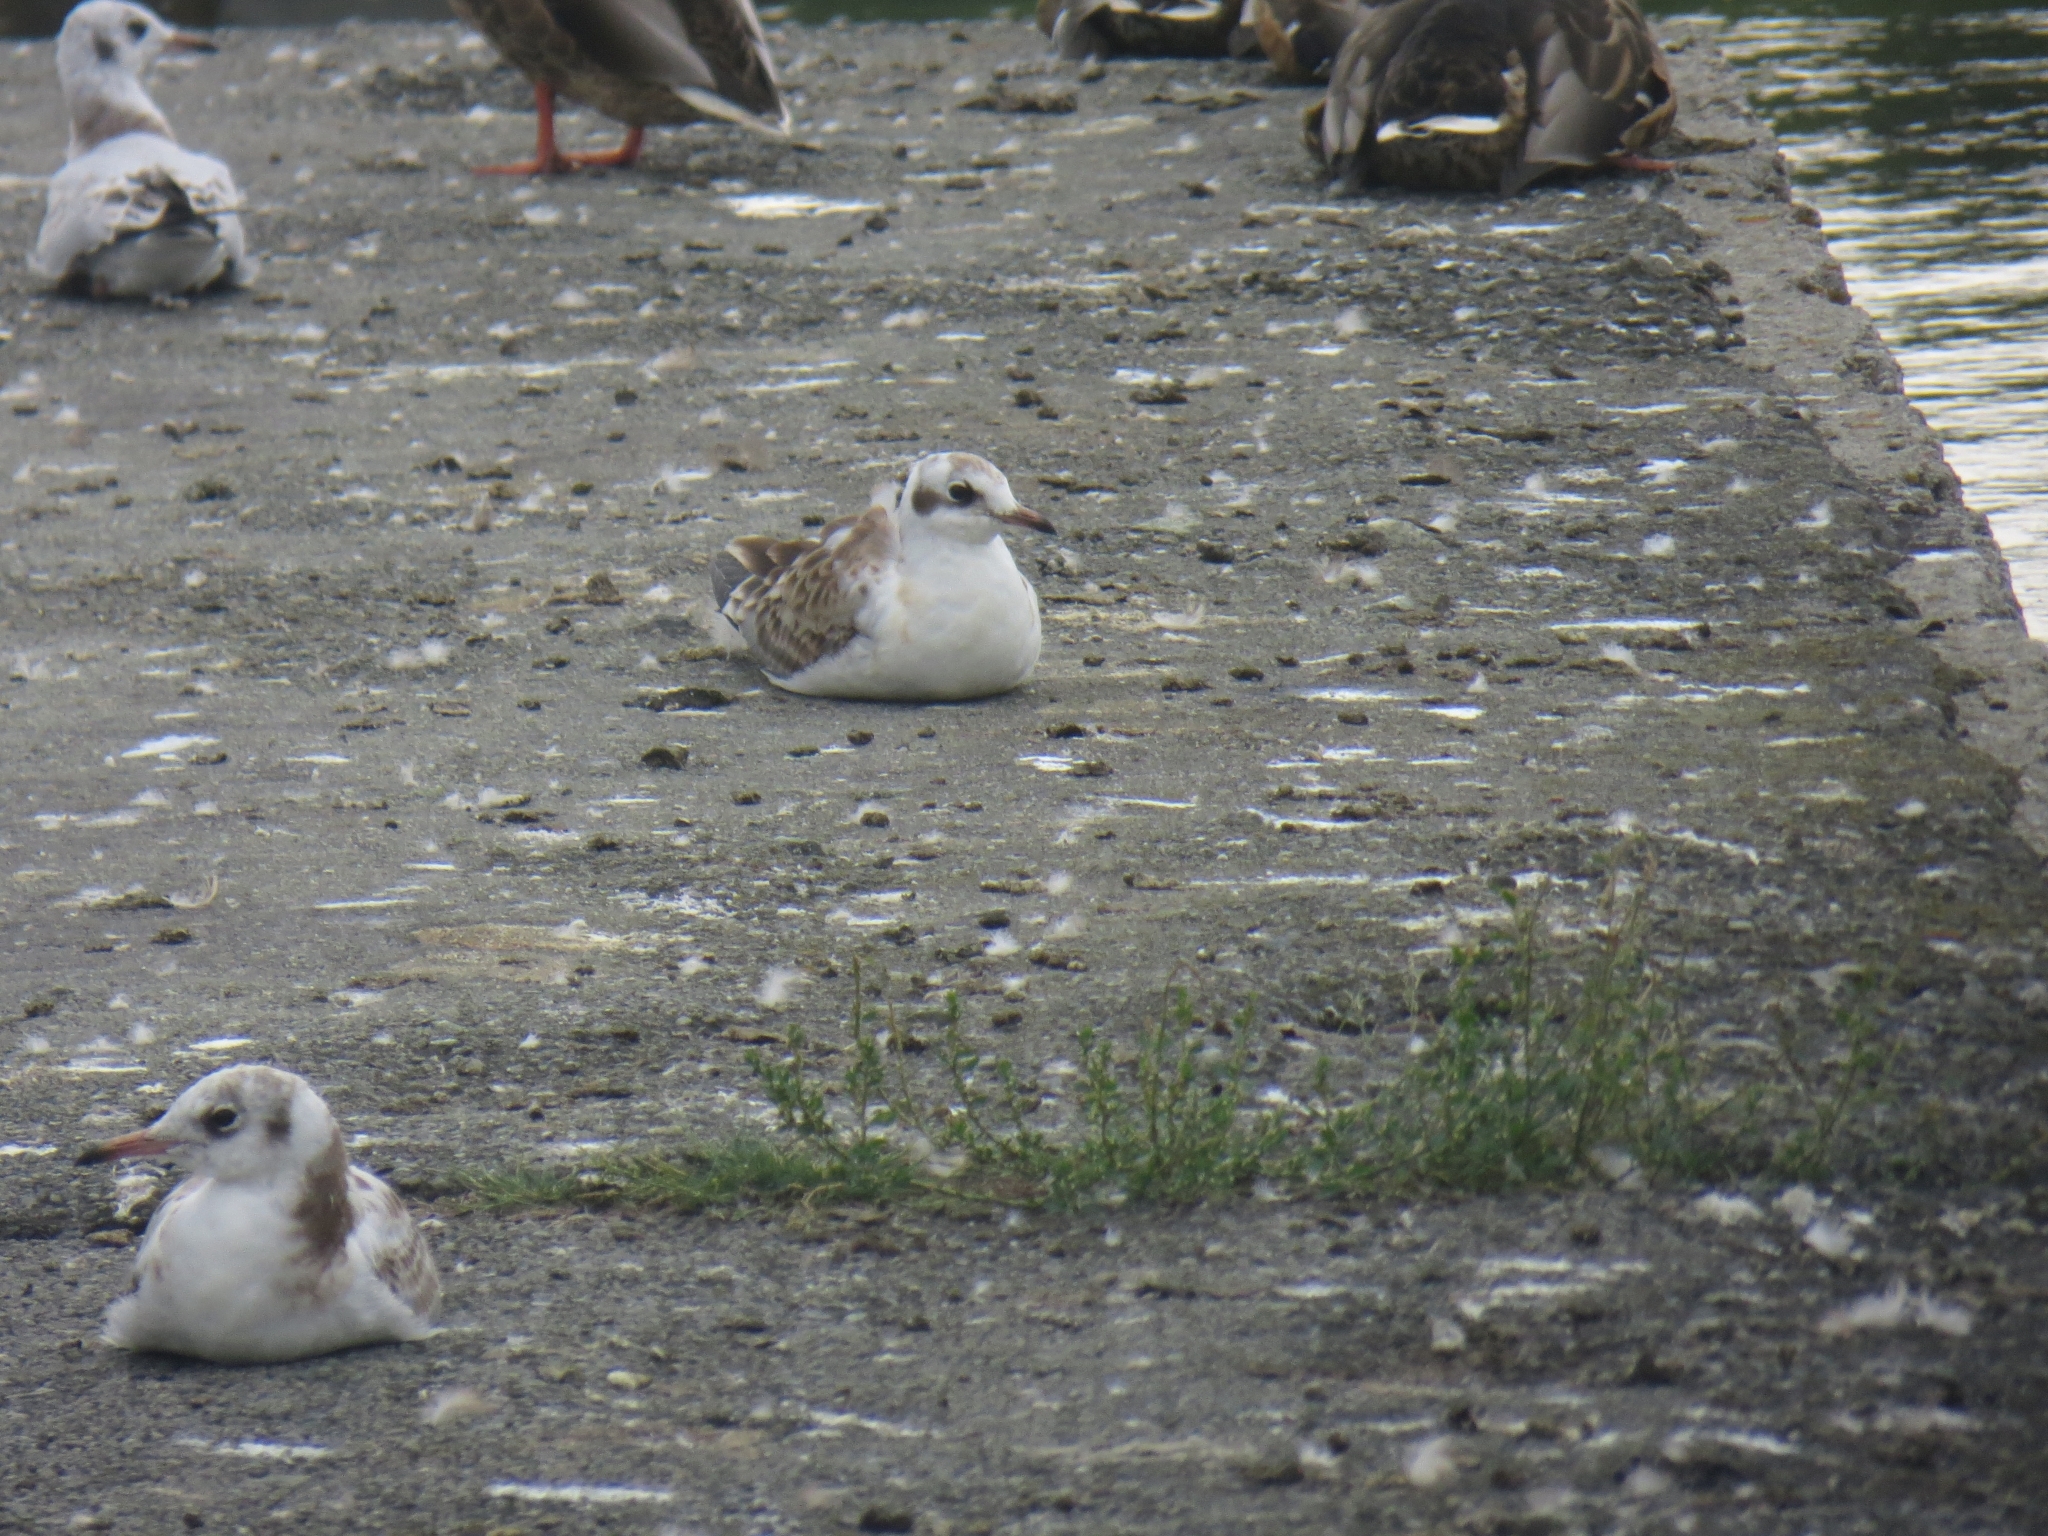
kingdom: Animalia
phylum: Chordata
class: Aves
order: Charadriiformes
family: Laridae
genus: Chroicocephalus
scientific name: Chroicocephalus ridibundus
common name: Black-headed gull
